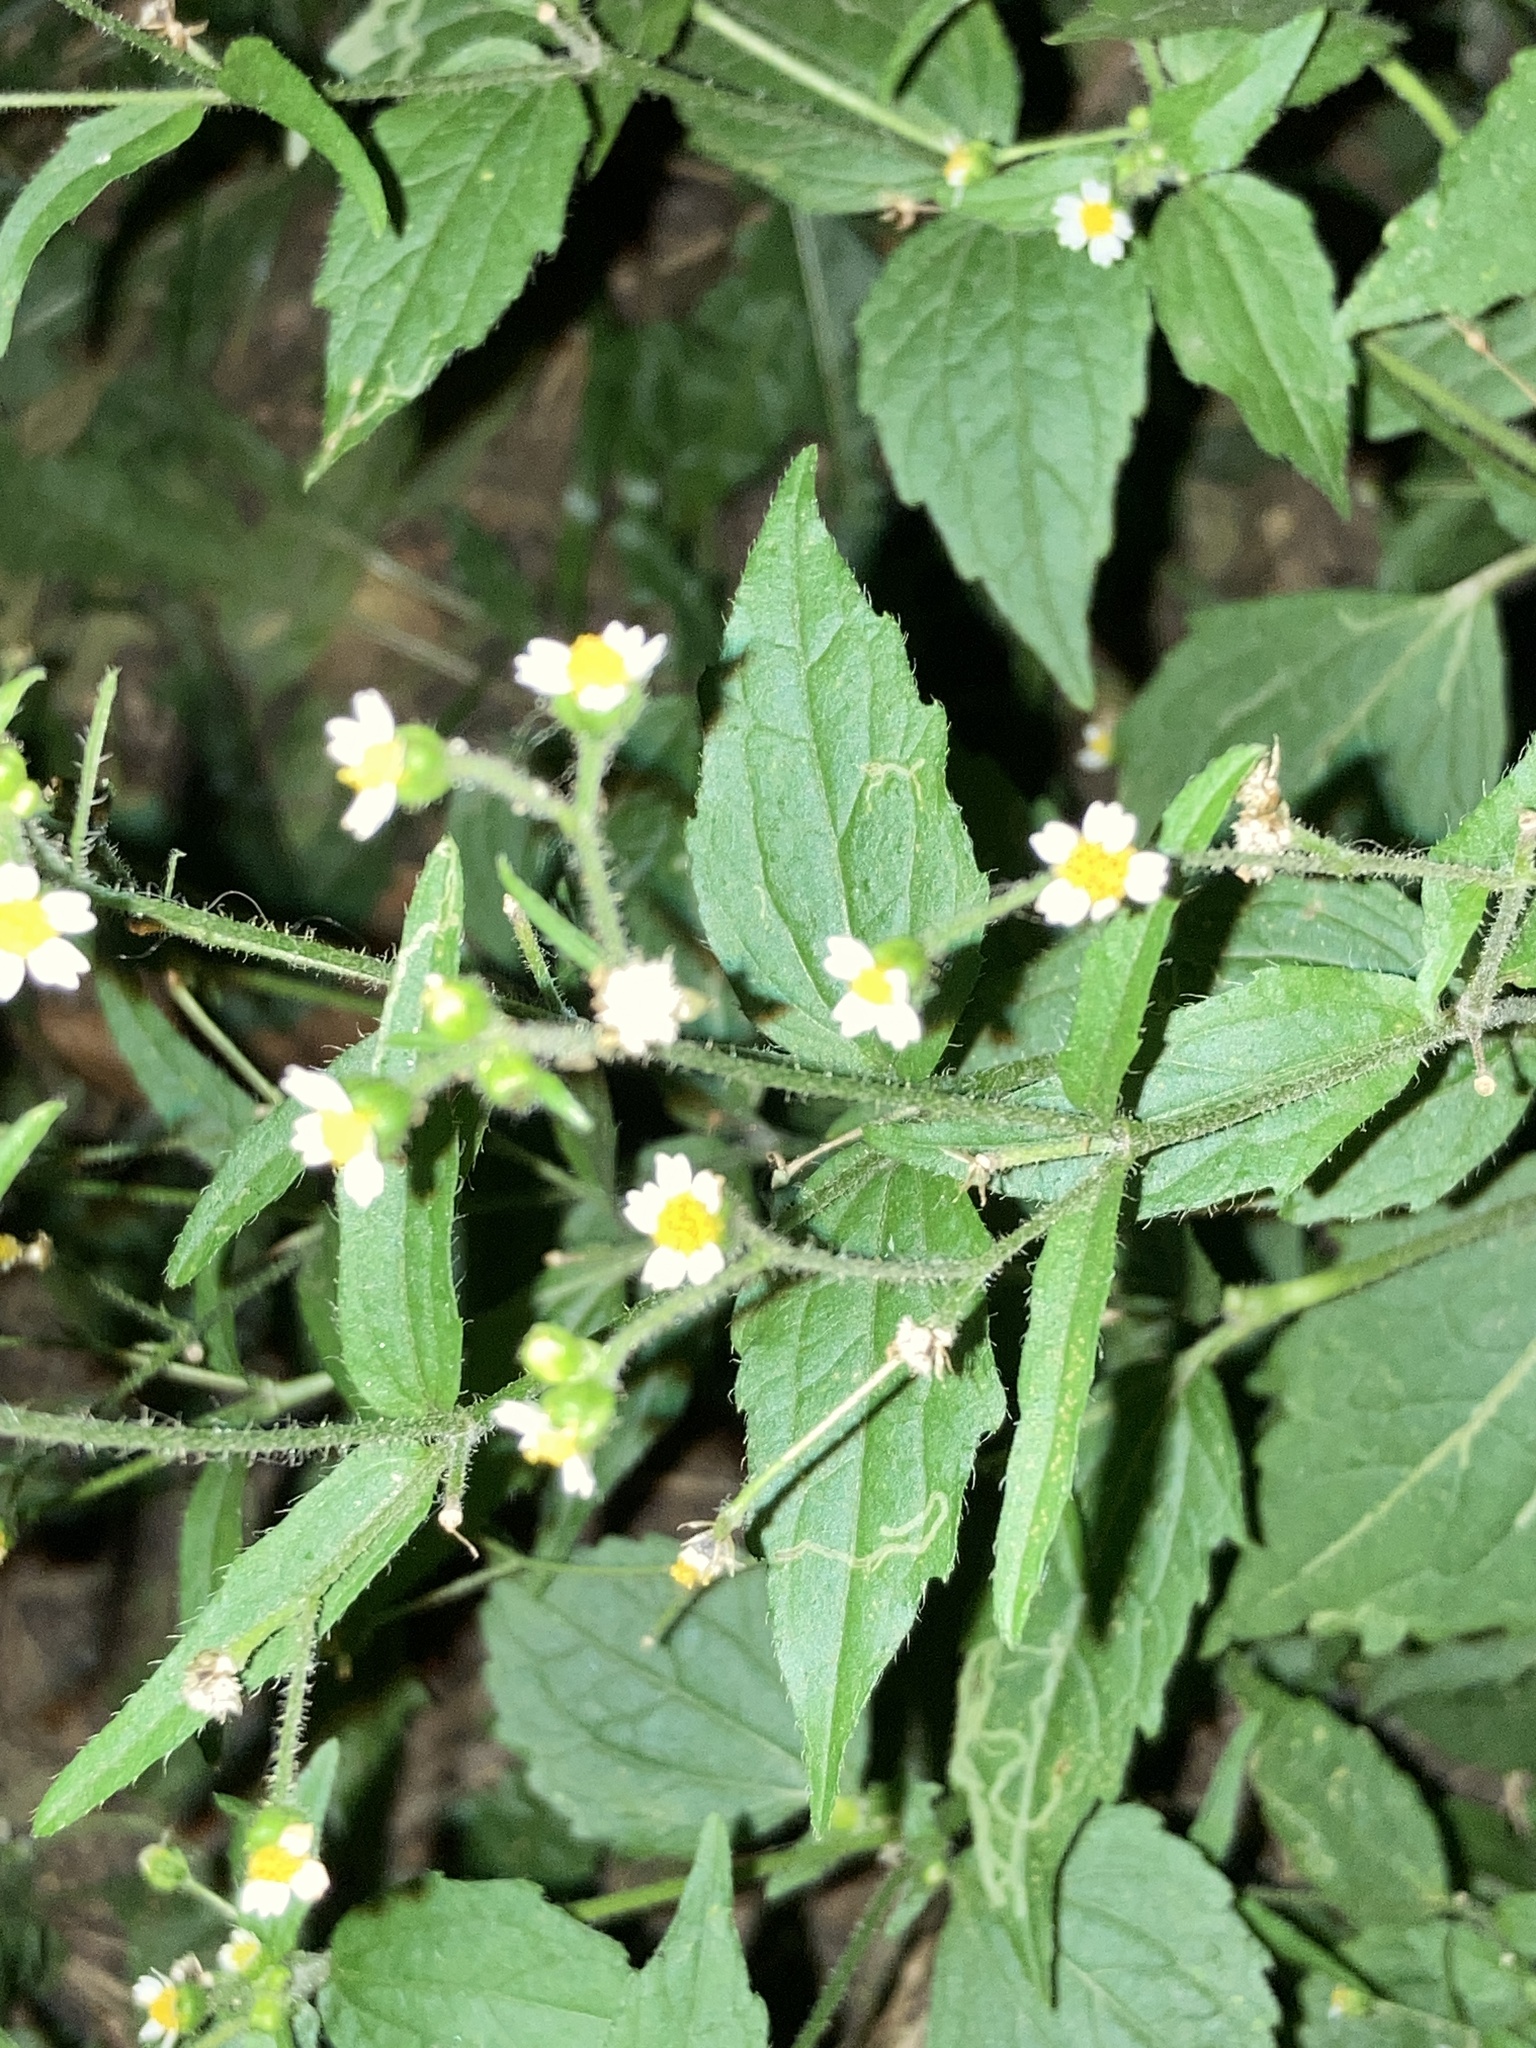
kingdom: Plantae
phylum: Tracheophyta
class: Magnoliopsida
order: Asterales
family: Asteraceae
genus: Galinsoga
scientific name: Galinsoga quadriradiata
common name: Shaggy soldier
